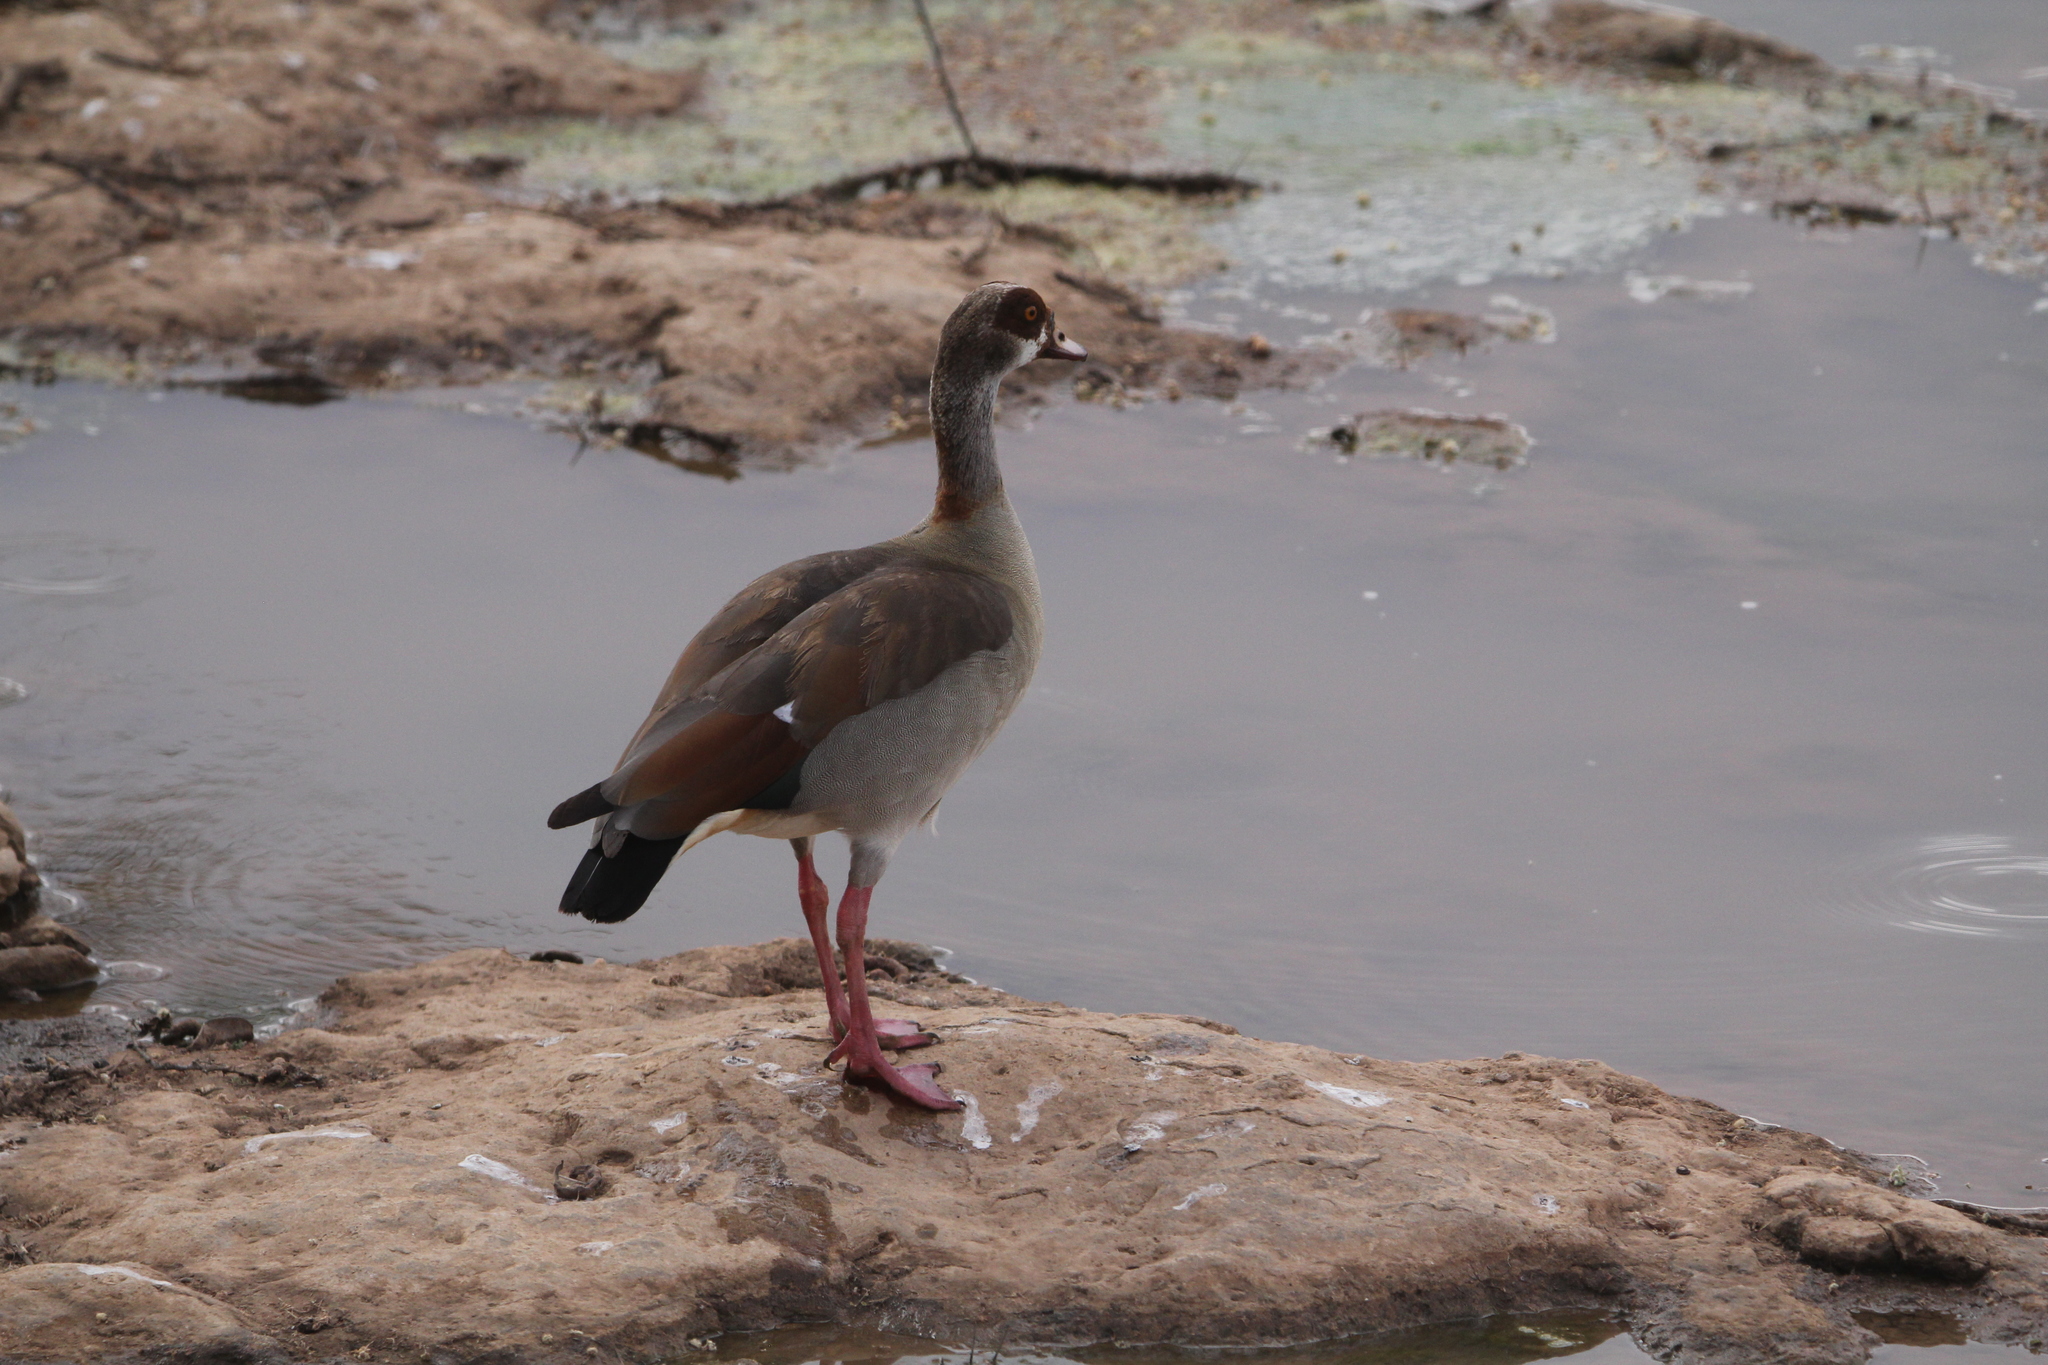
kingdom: Animalia
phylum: Chordata
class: Aves
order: Anseriformes
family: Anatidae
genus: Alopochen
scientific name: Alopochen aegyptiaca
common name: Egyptian goose
